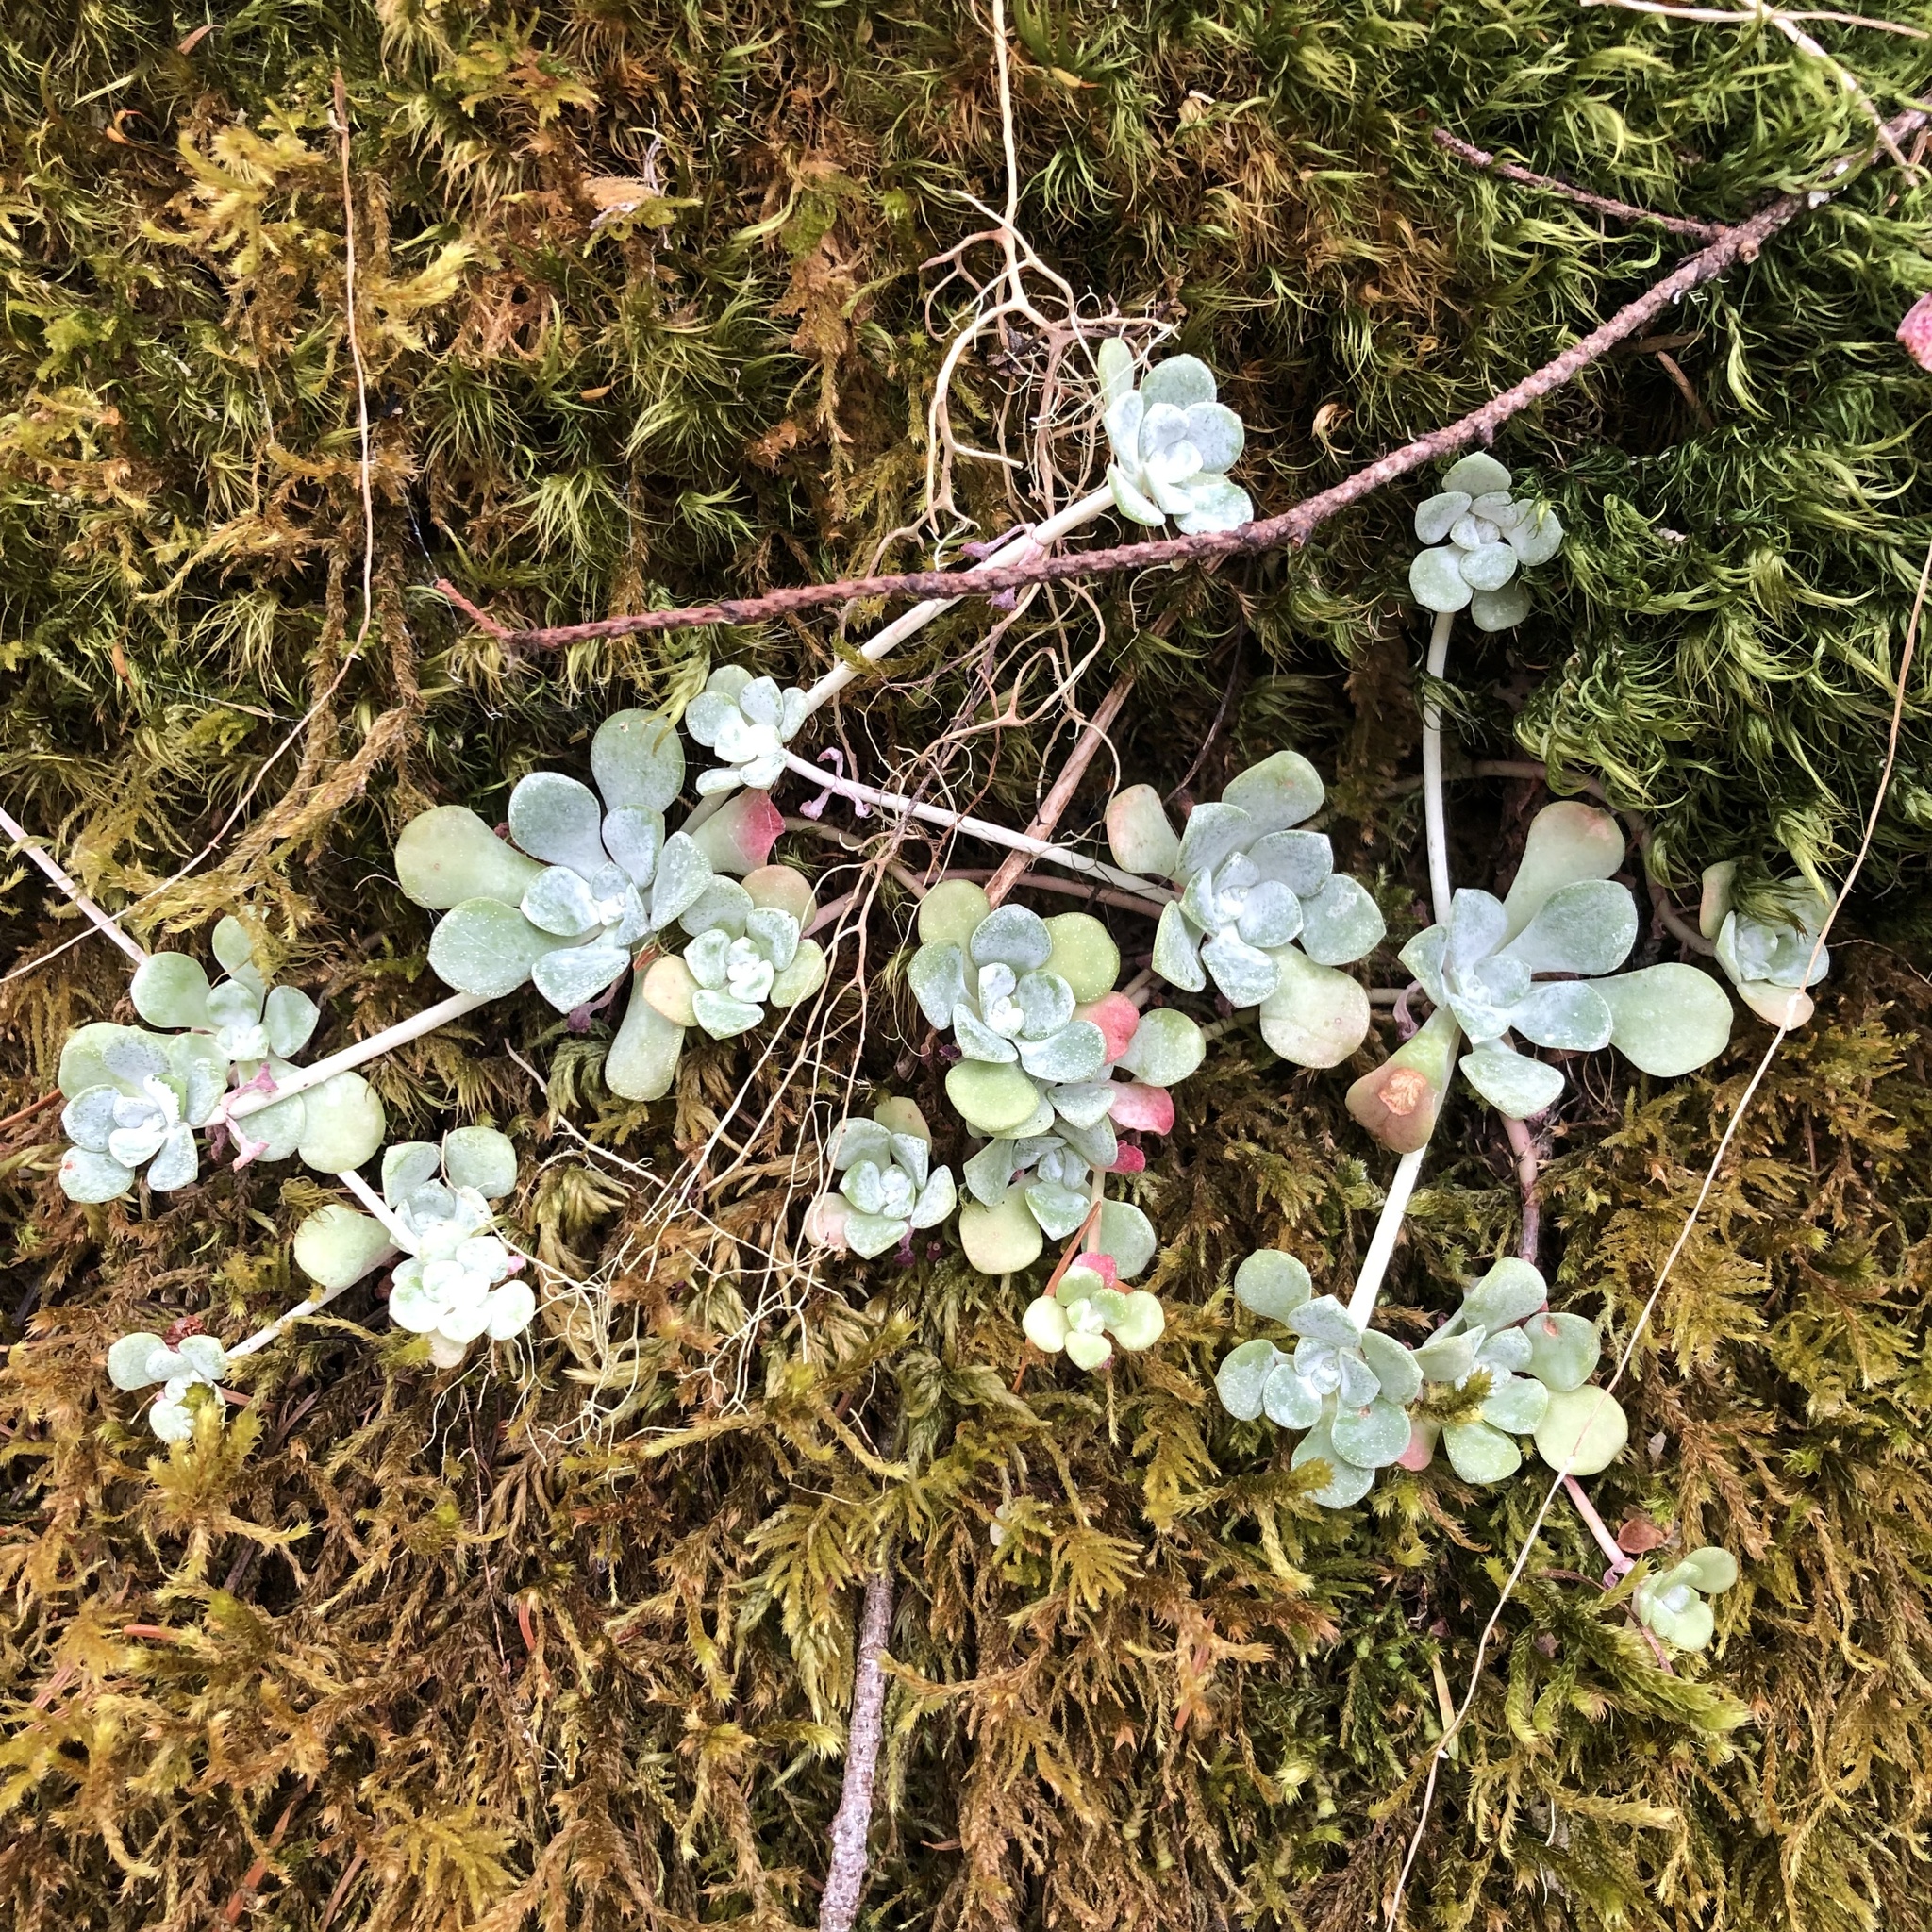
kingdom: Plantae
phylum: Tracheophyta
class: Magnoliopsida
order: Saxifragales
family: Crassulaceae
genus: Sedum
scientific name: Sedum spathulifolium
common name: Colorado stonecrop
